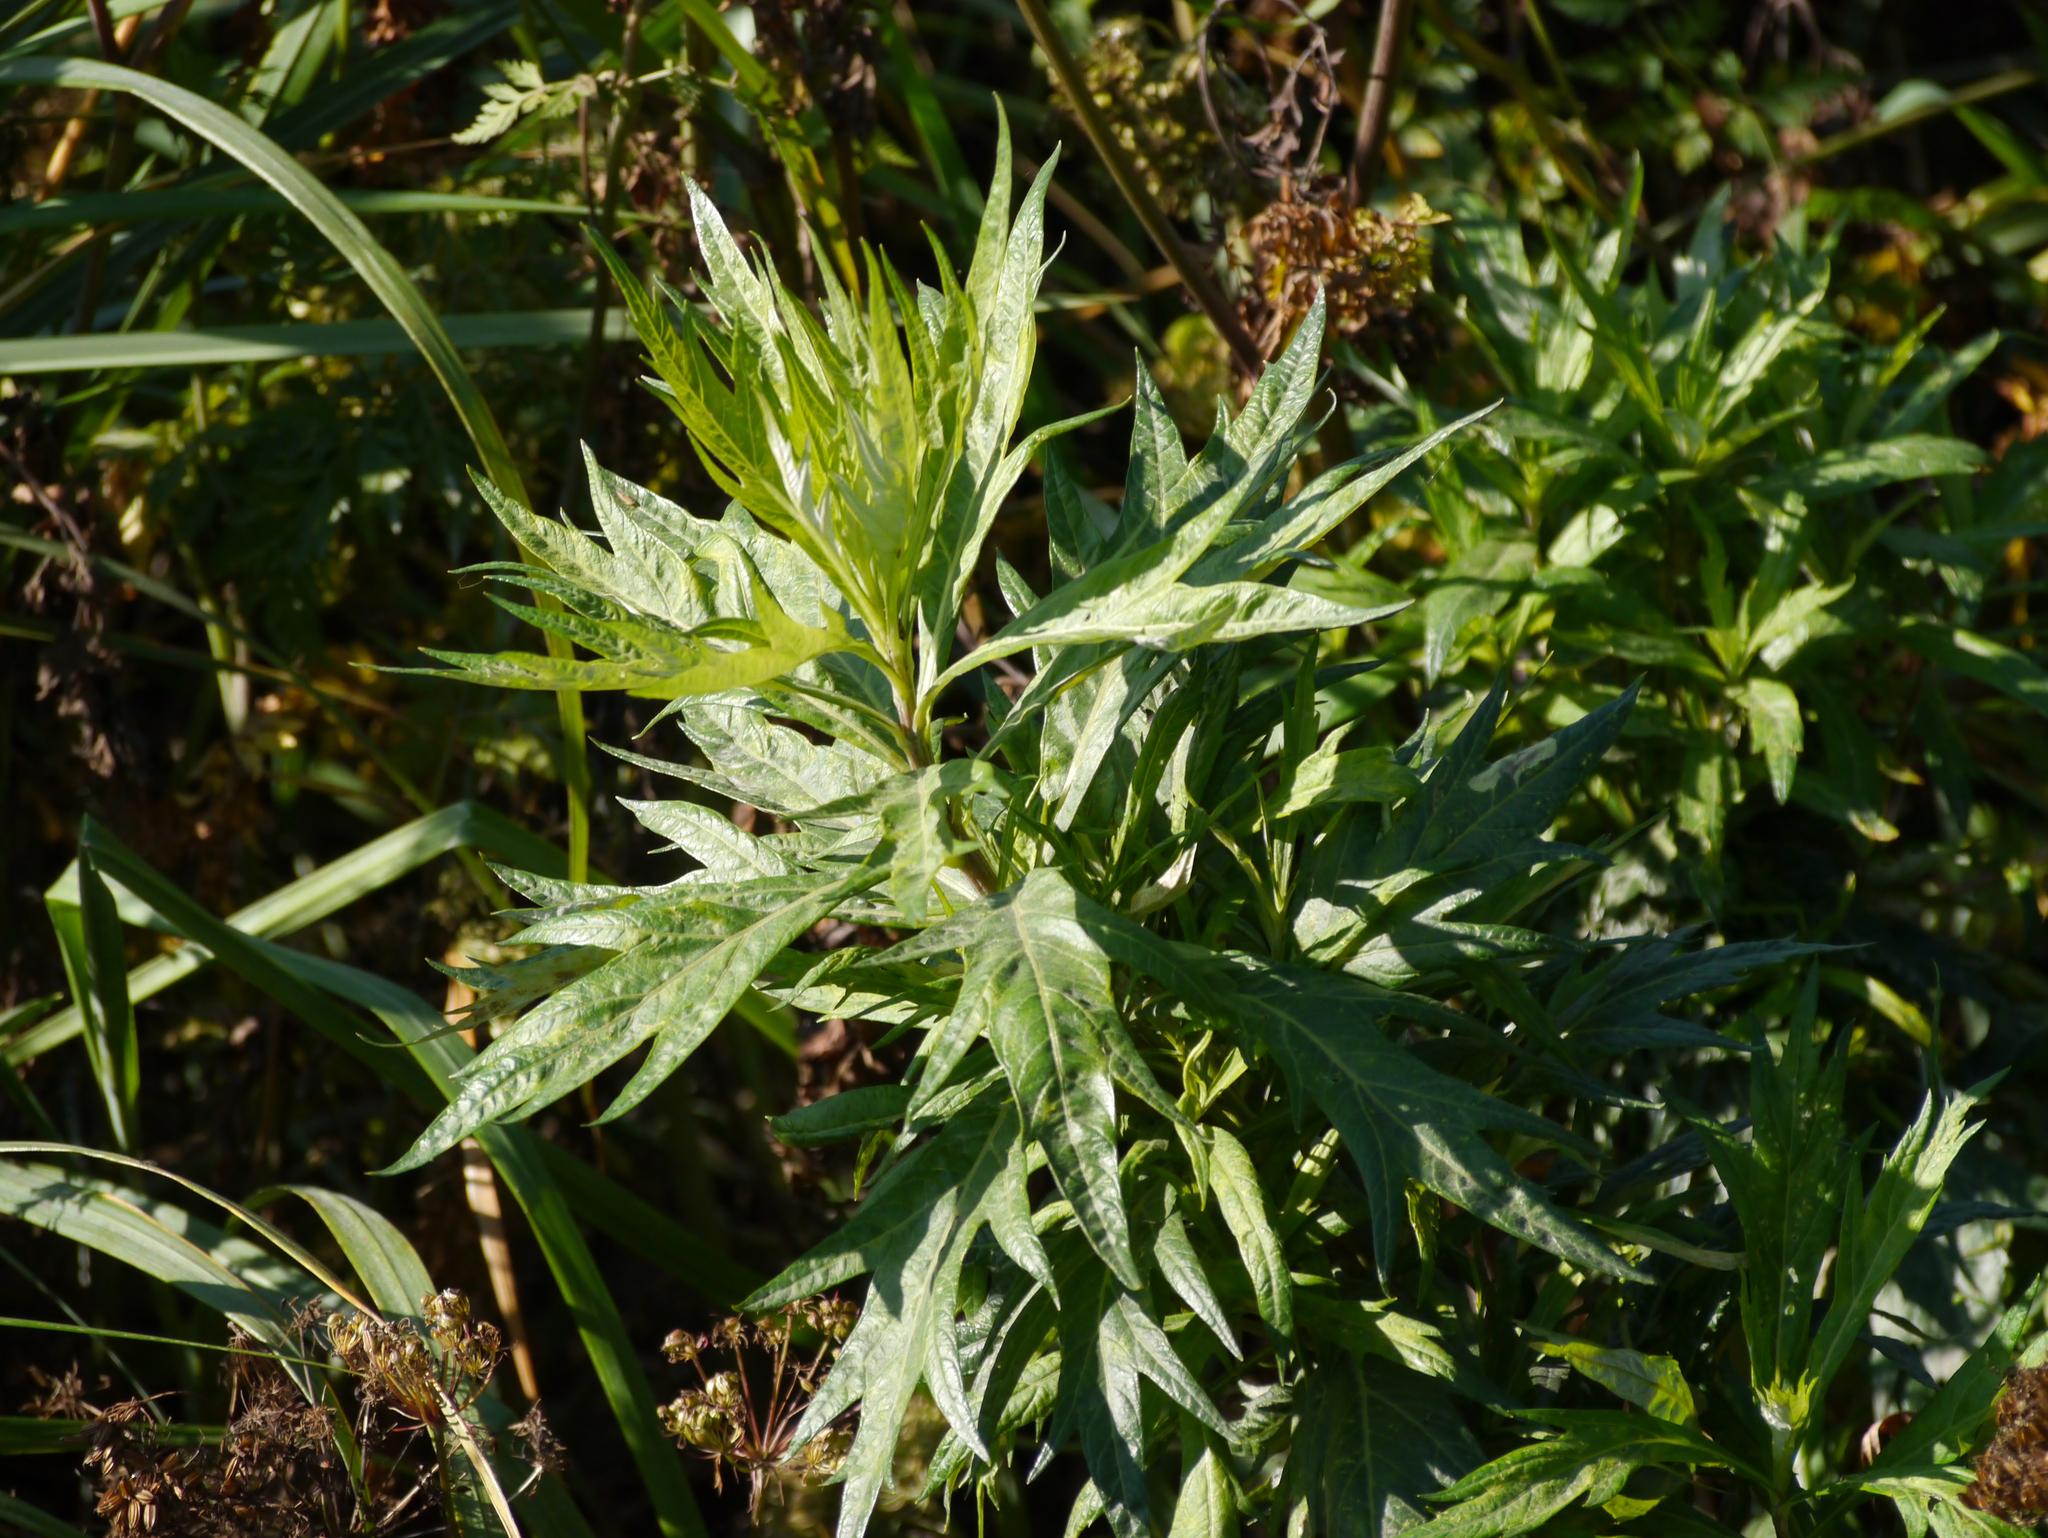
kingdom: Plantae
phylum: Tracheophyta
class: Magnoliopsida
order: Asterales
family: Asteraceae
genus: Artemisia
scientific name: Artemisia tilesii
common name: Aleutian mugwort
